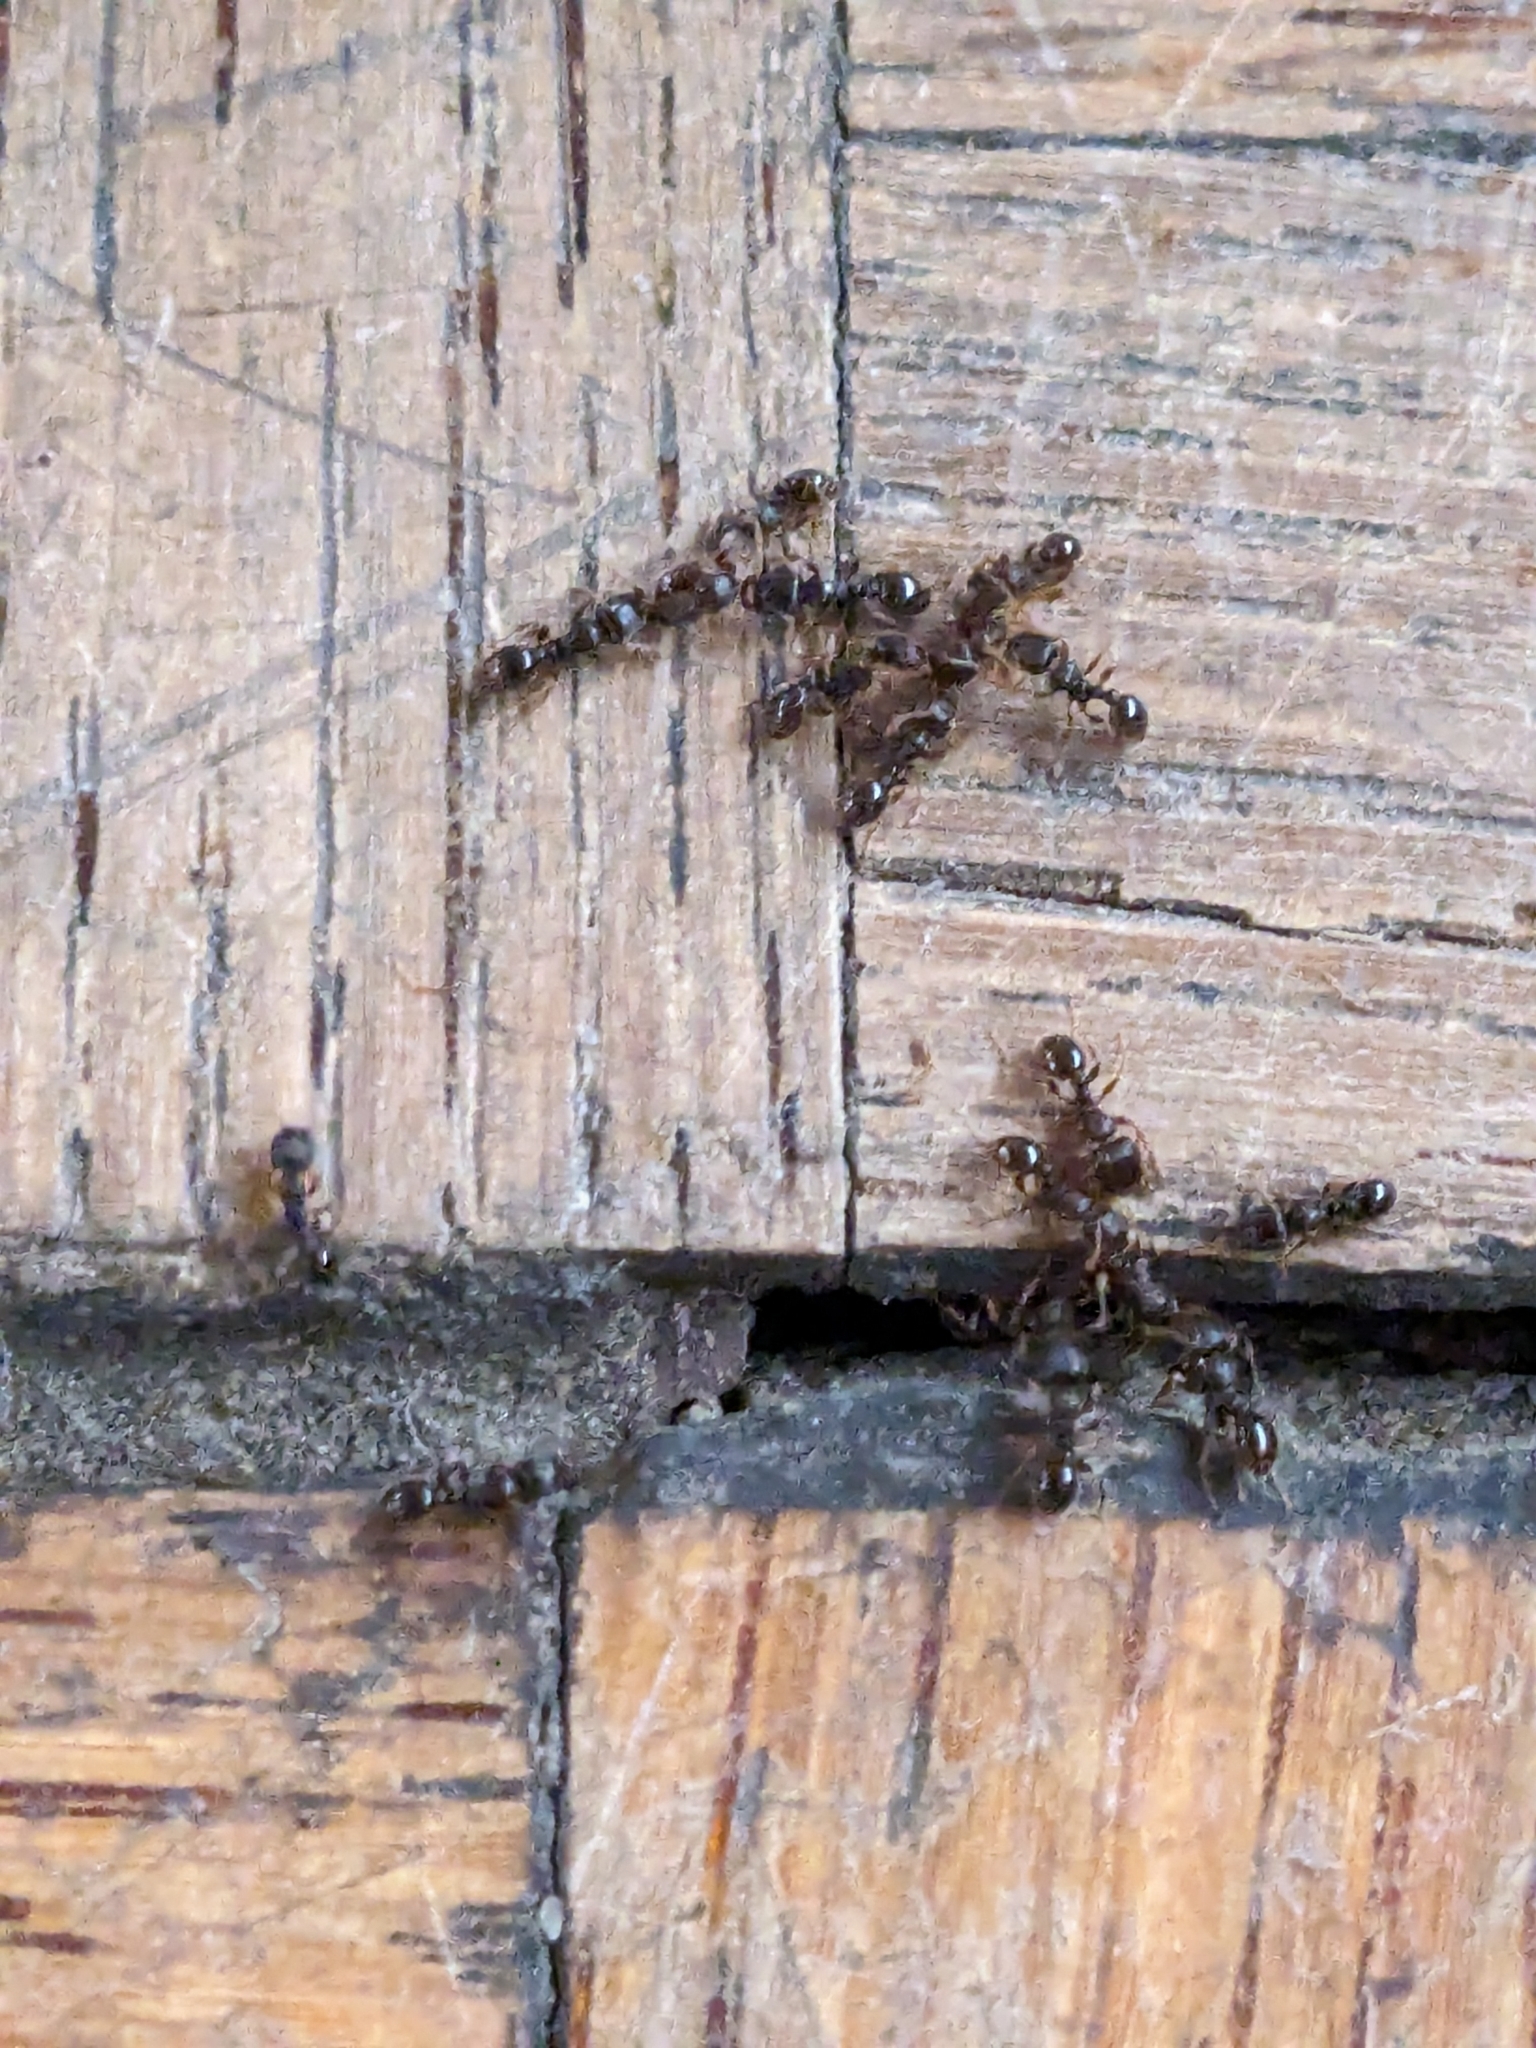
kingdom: Animalia
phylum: Arthropoda
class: Insecta
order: Hymenoptera
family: Formicidae
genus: Tetramorium
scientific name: Tetramorium immigrans
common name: Pavement ant
